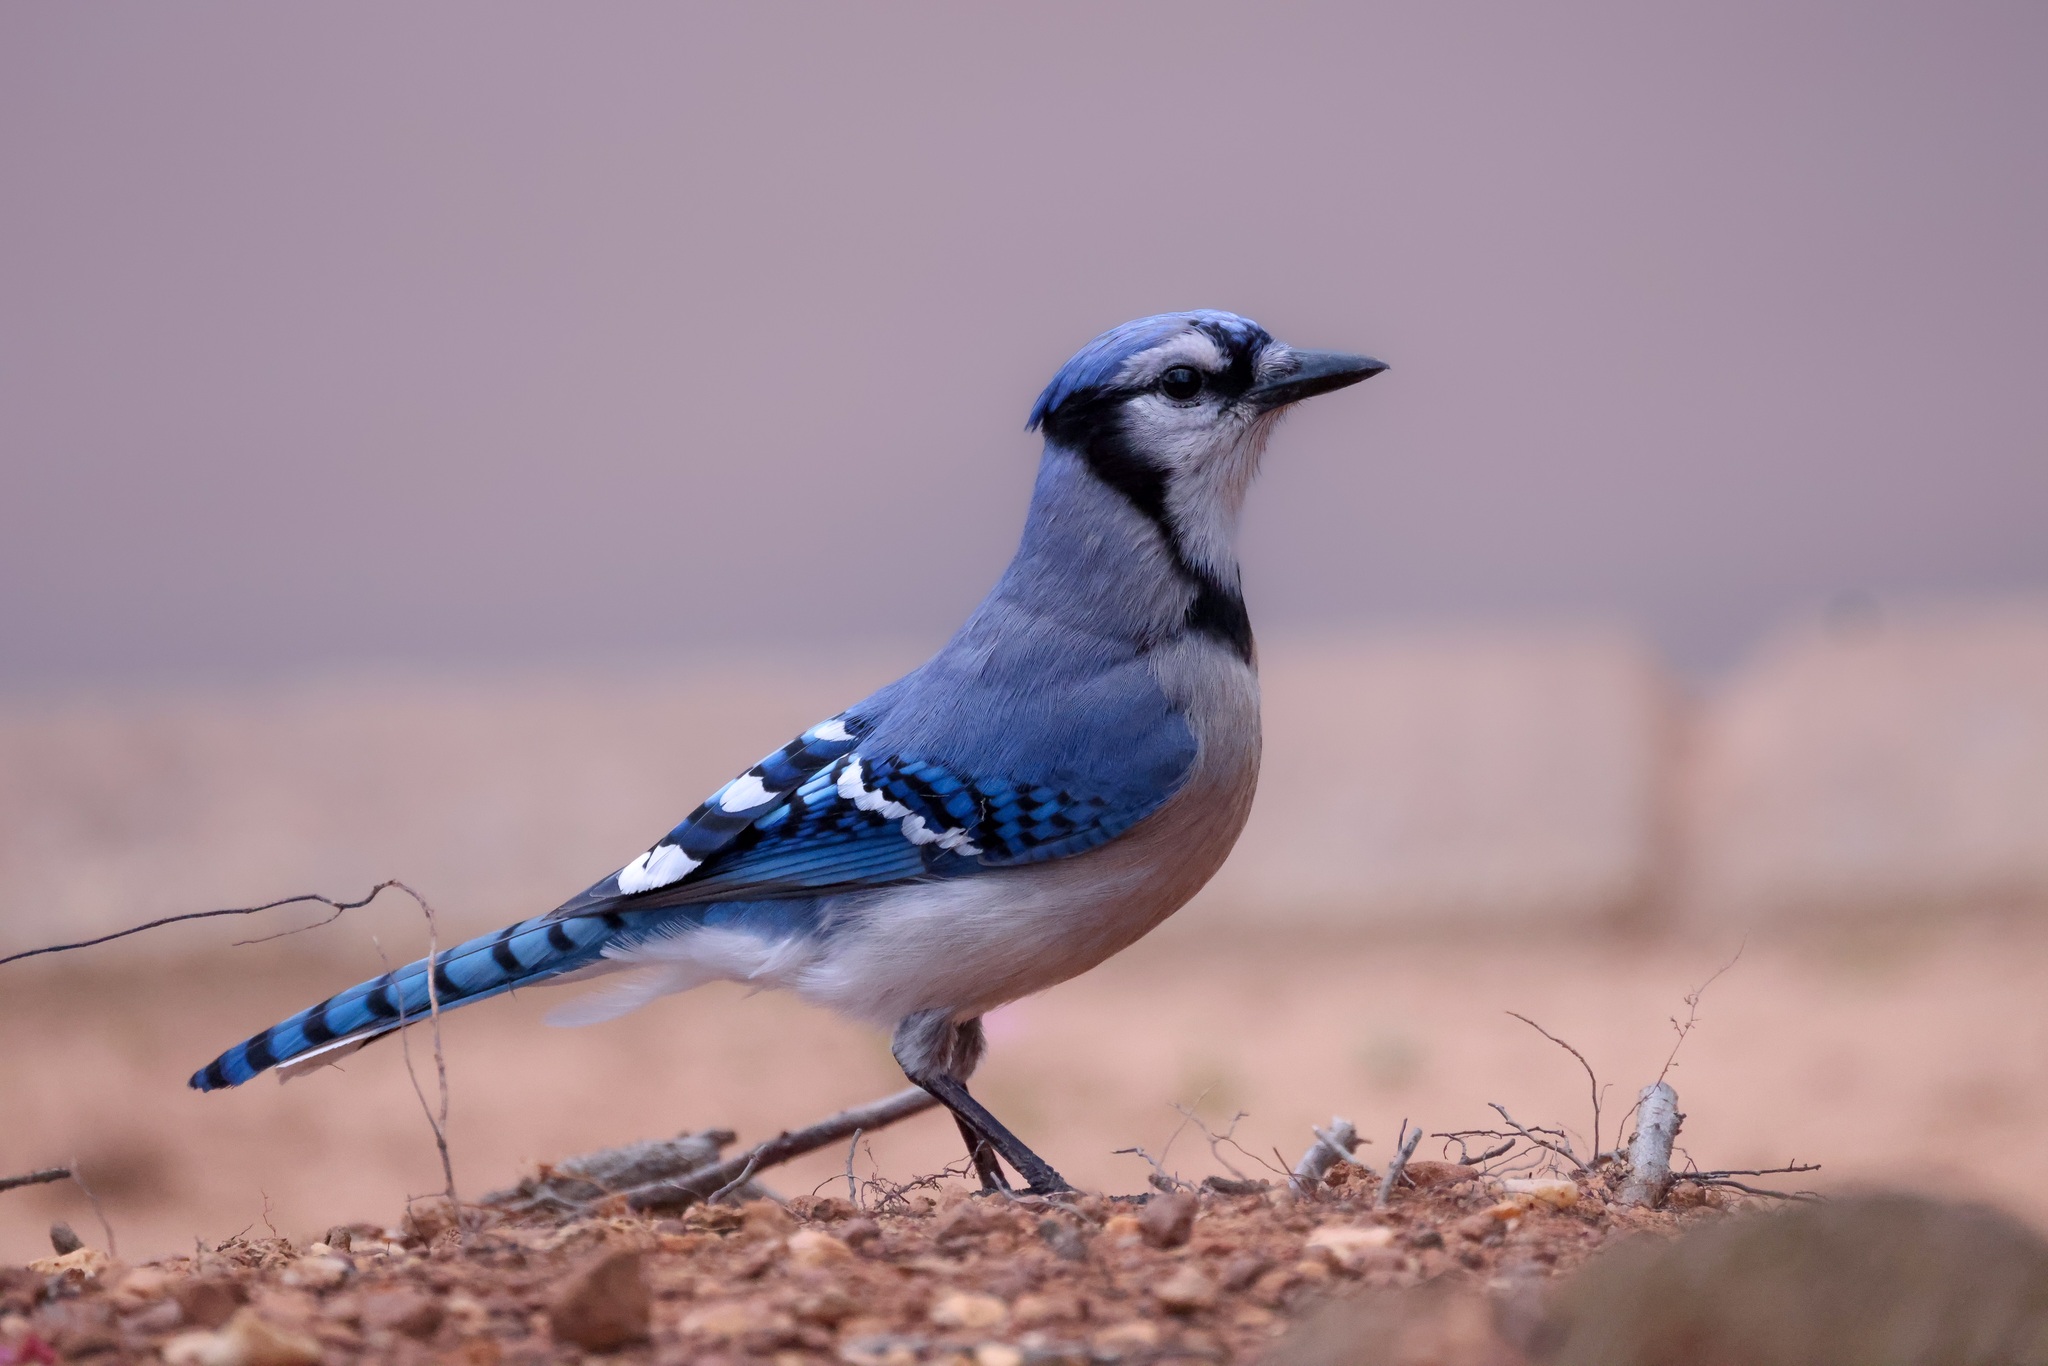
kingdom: Animalia
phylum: Chordata
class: Aves
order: Passeriformes
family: Corvidae
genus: Cyanocitta
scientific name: Cyanocitta cristata
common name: Blue jay
